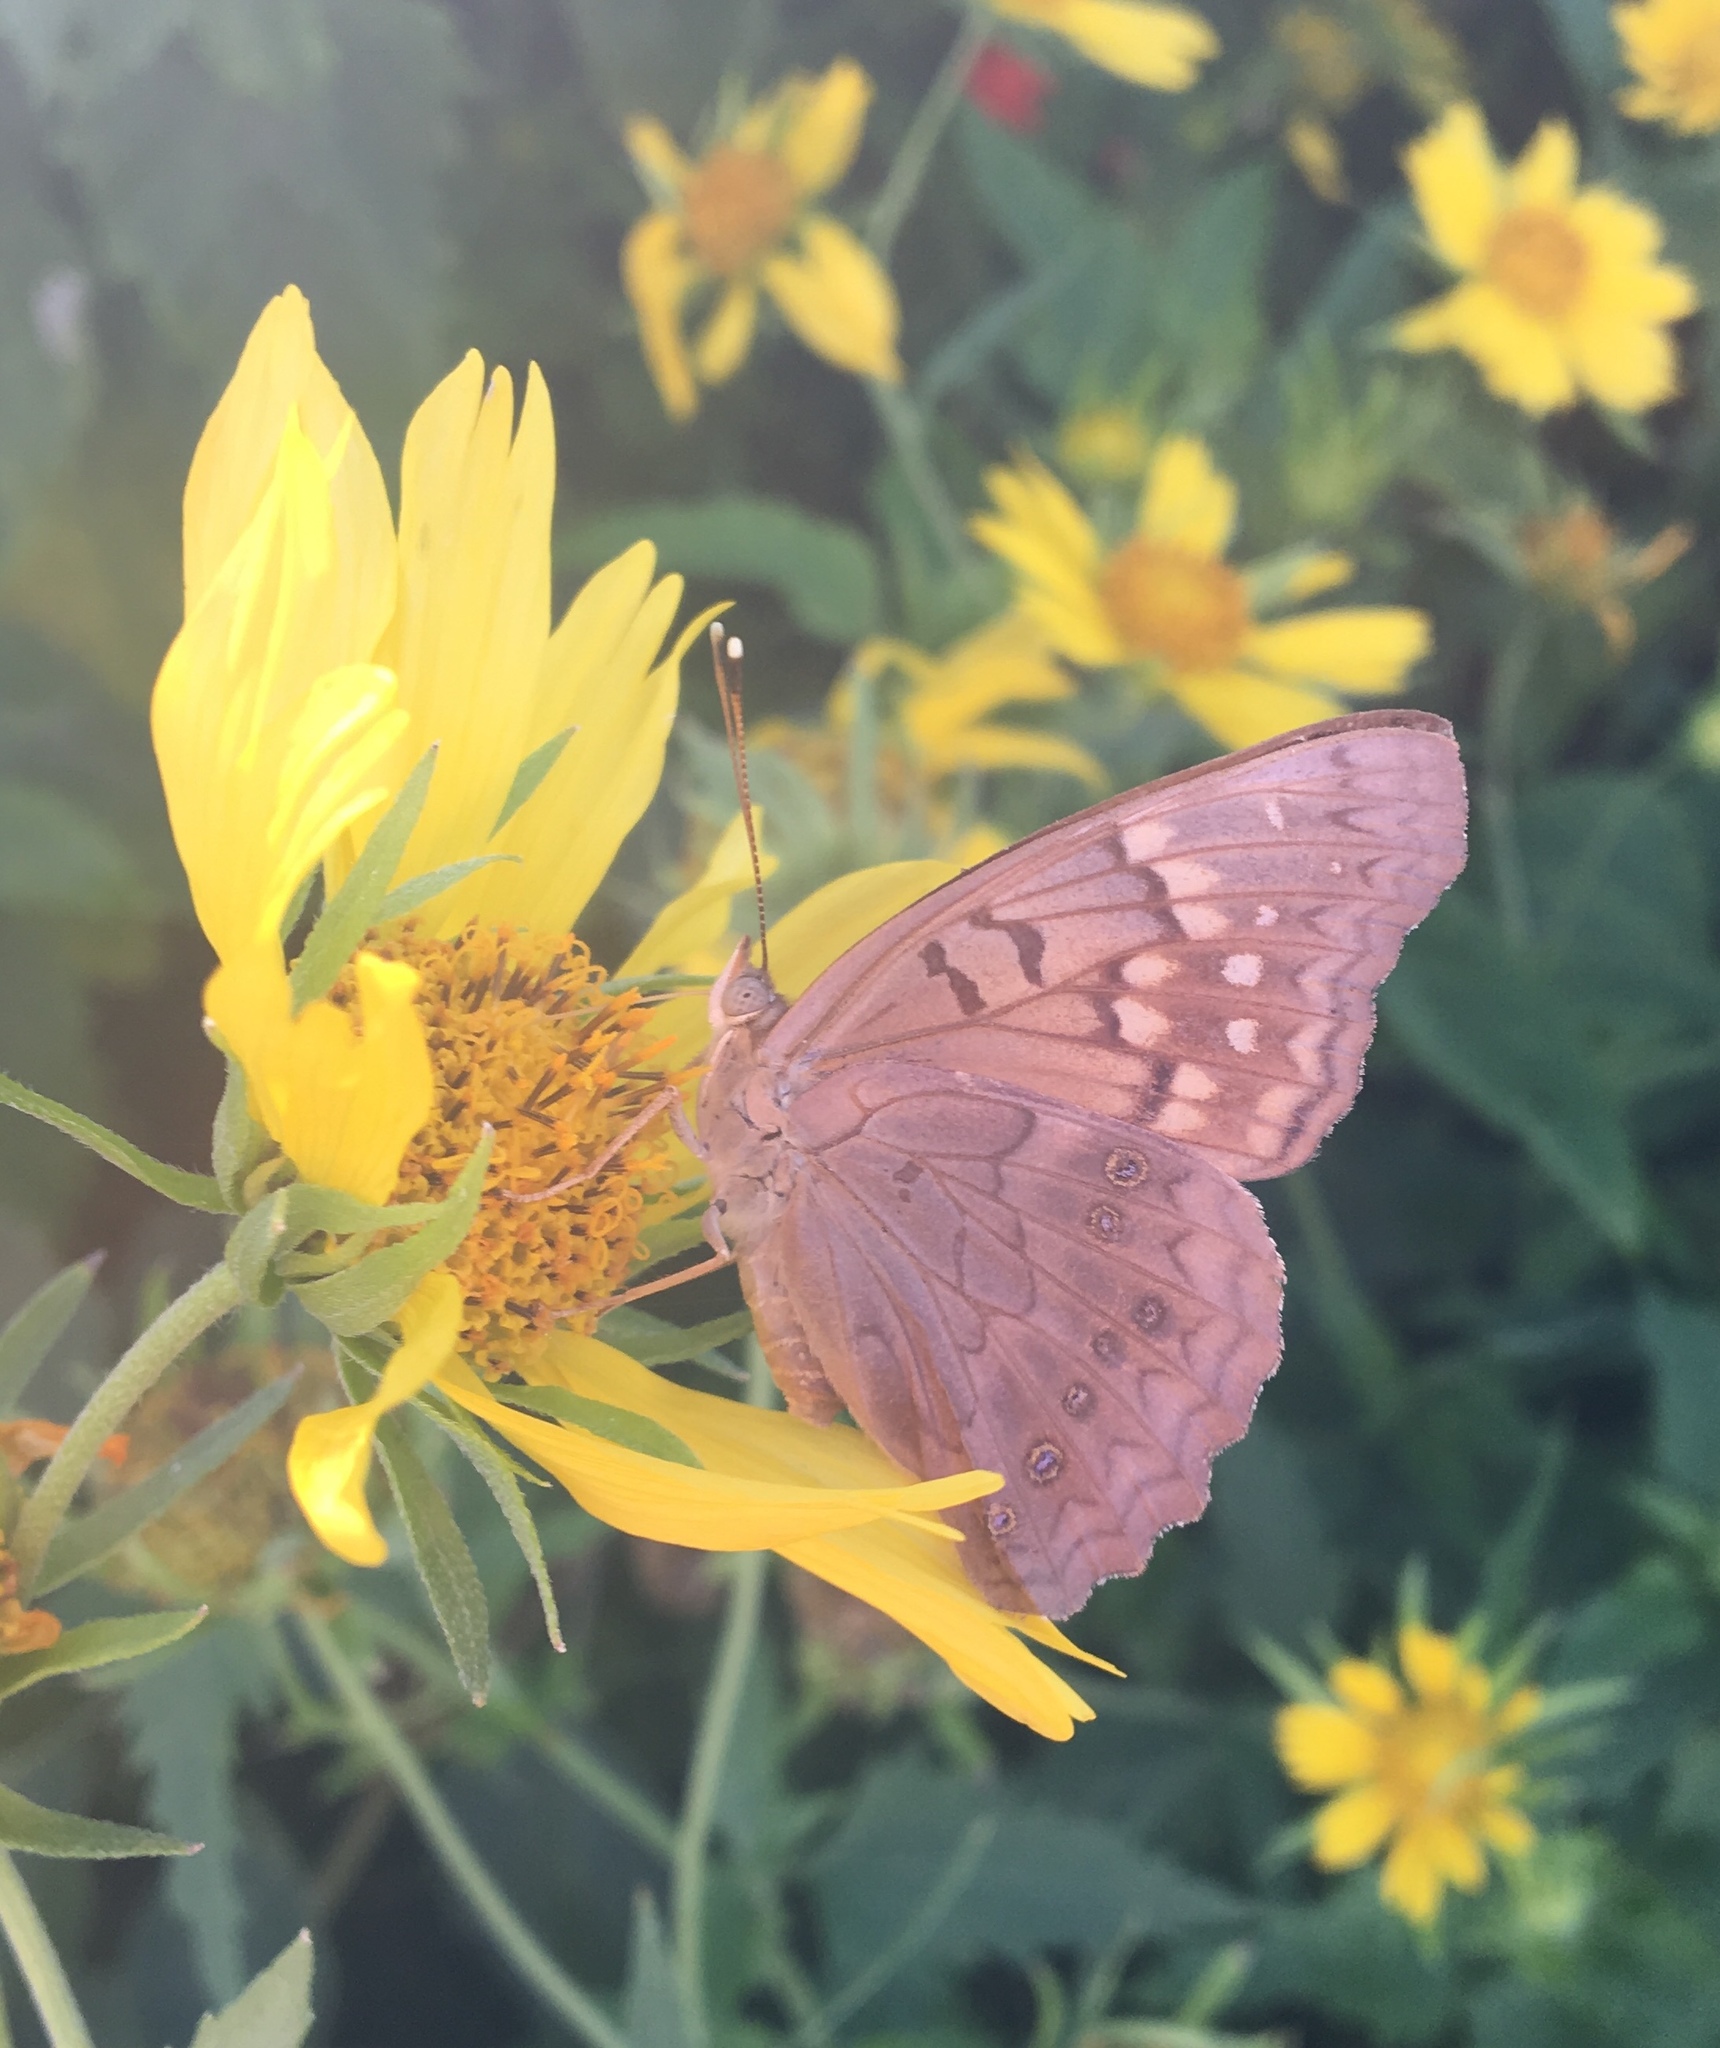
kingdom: Animalia
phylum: Arthropoda
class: Insecta
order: Lepidoptera
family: Nymphalidae
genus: Asterocampa
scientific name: Asterocampa clyton
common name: Tawny emperor
